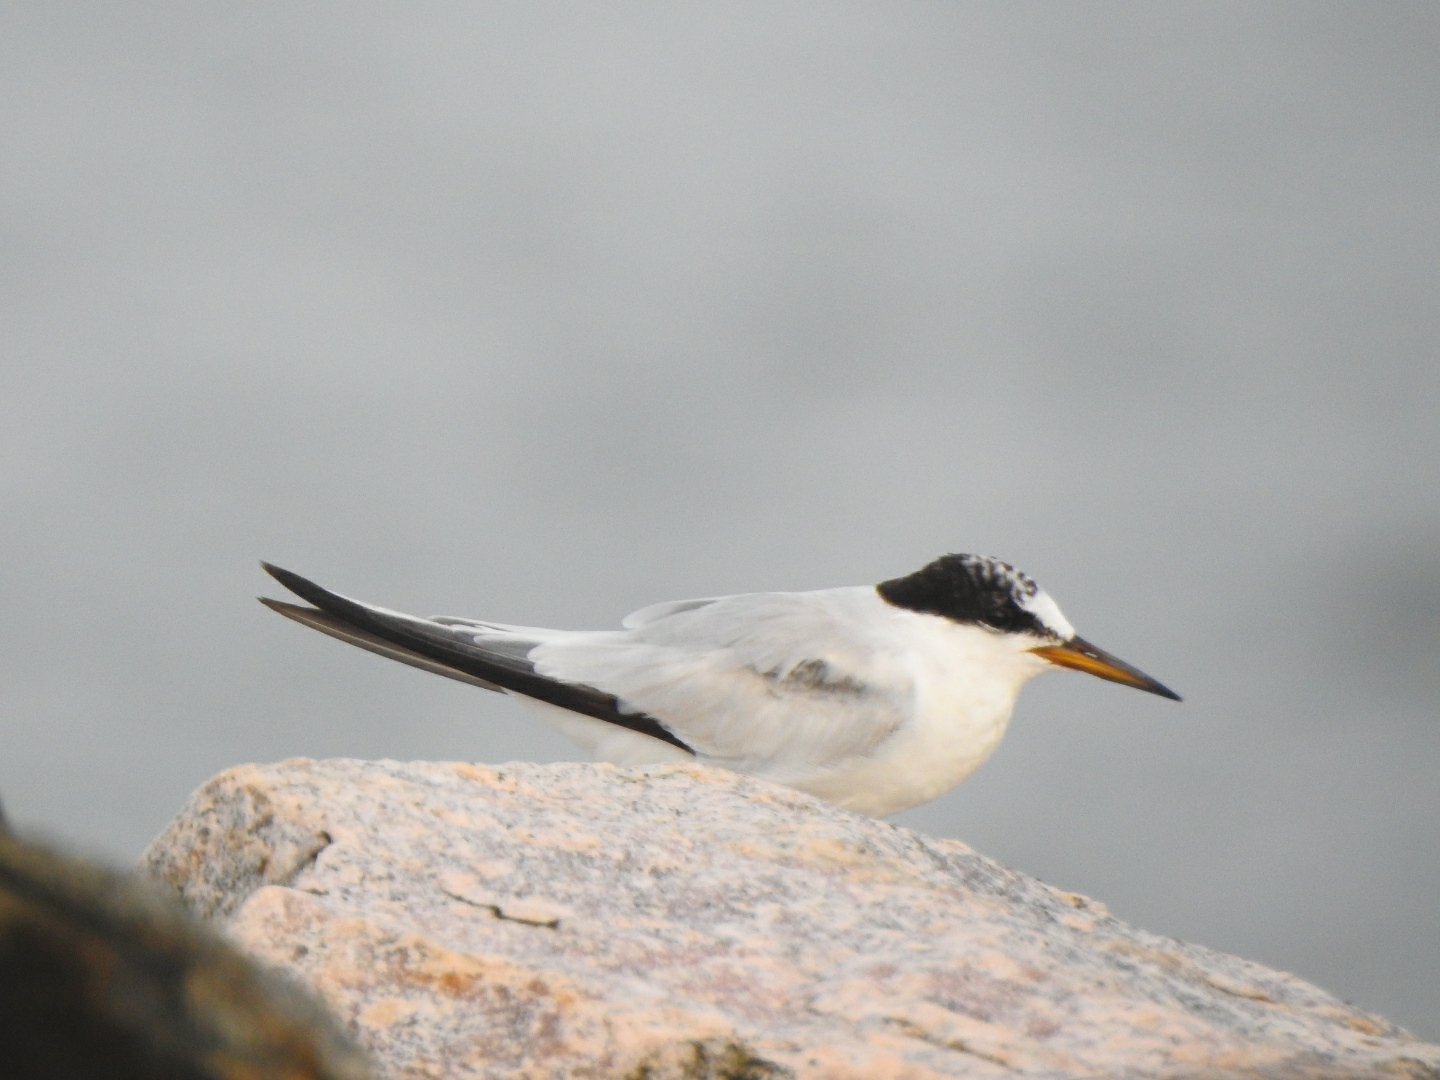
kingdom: Animalia
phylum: Chordata
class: Aves
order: Charadriiformes
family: Laridae
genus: Sternula
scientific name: Sternula saundersi
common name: Saunders's tern
